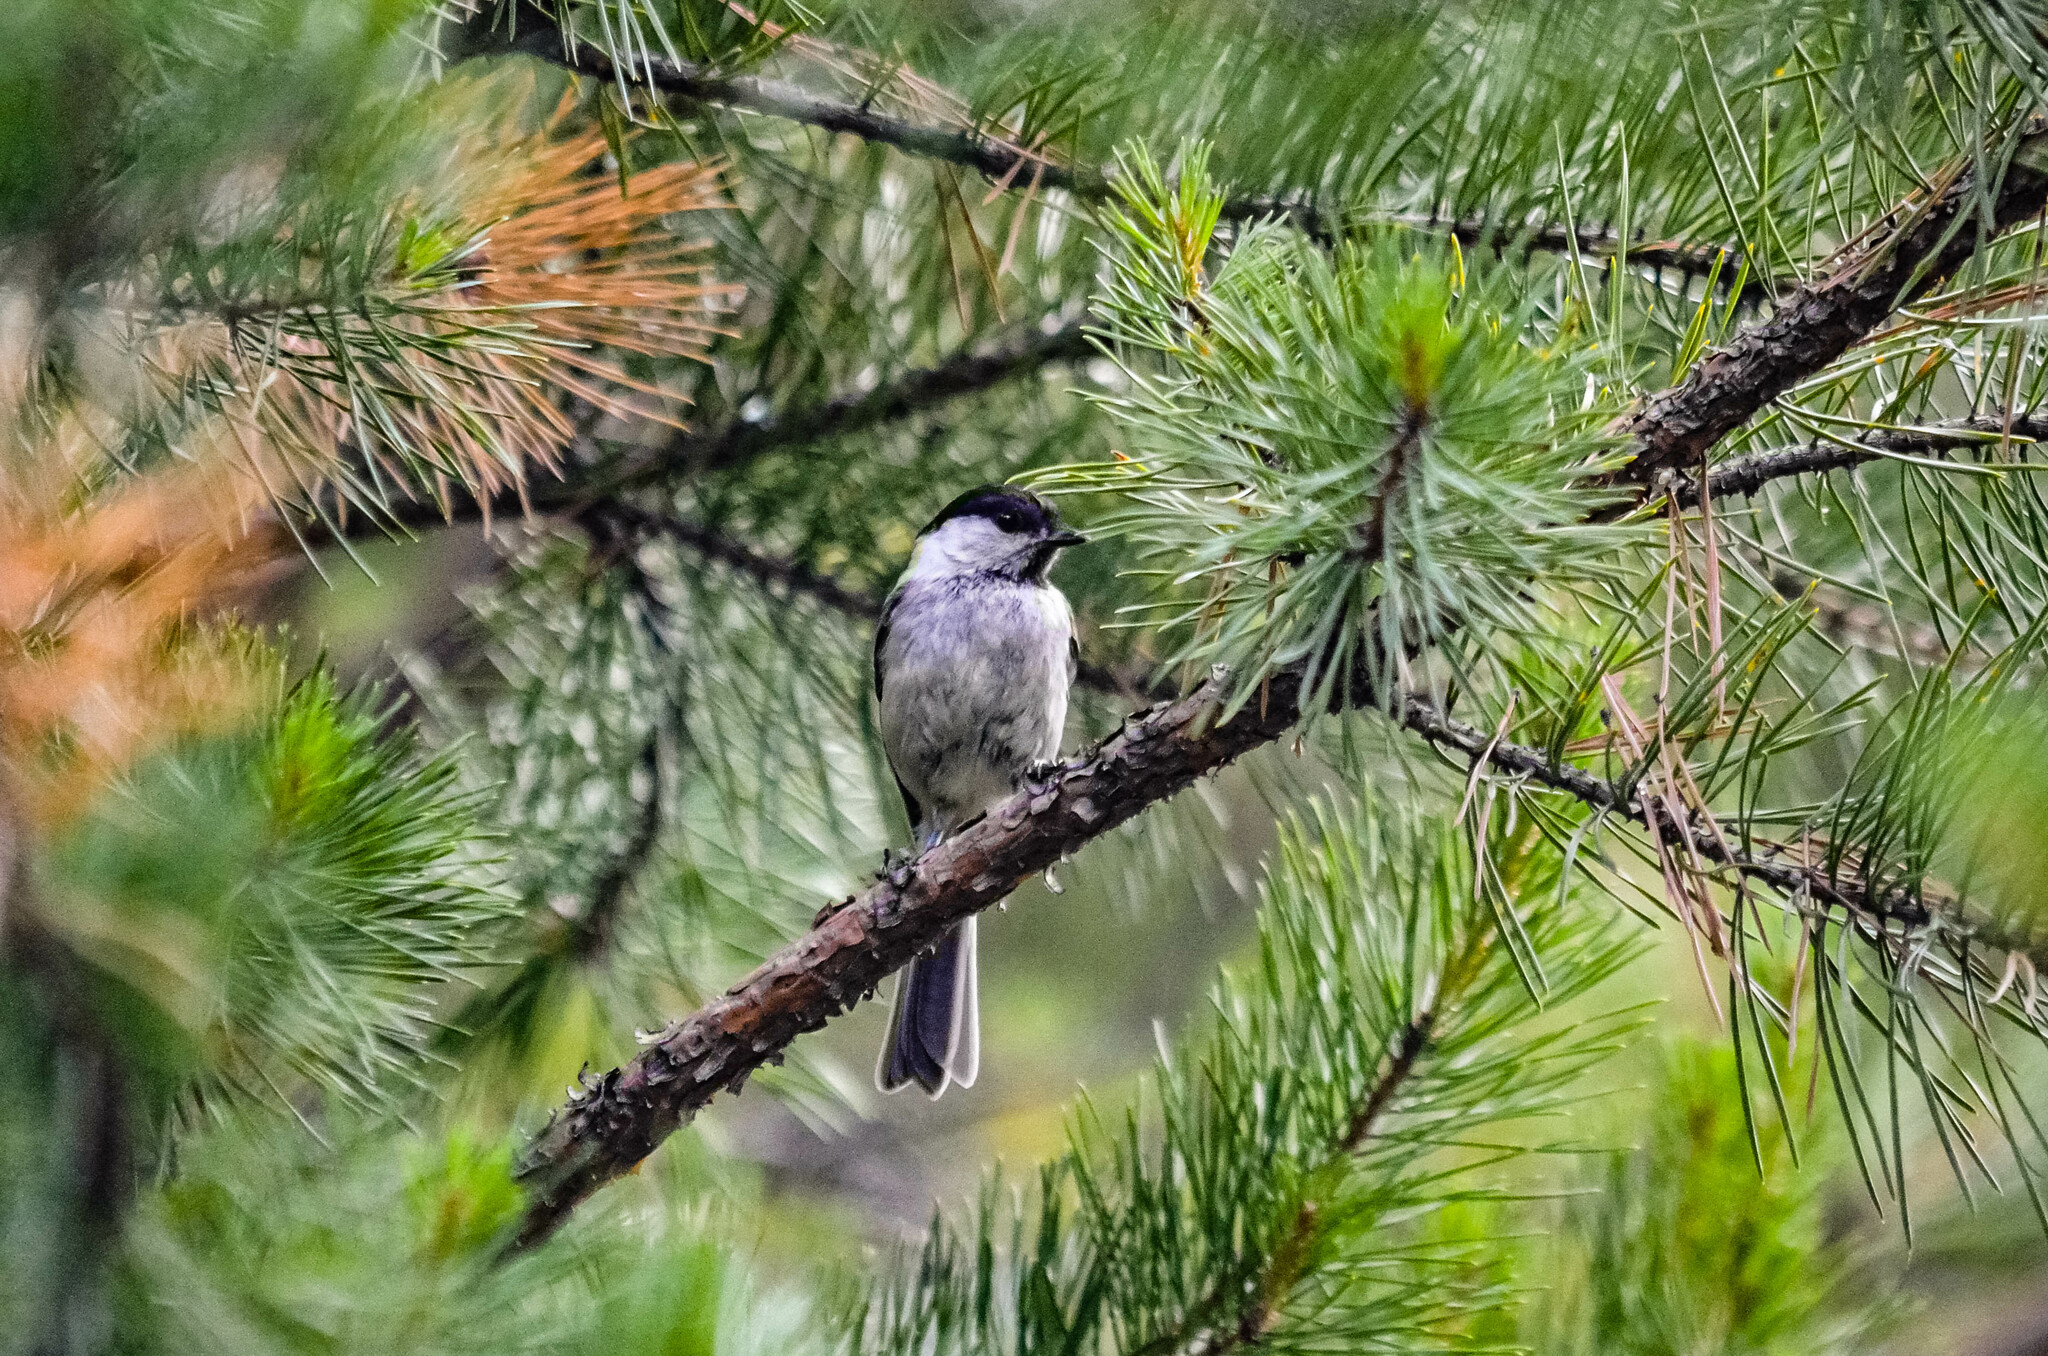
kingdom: Animalia
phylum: Chordata
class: Aves
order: Passeriformes
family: Paridae
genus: Poecile
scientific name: Poecile montanus
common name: Willow tit
